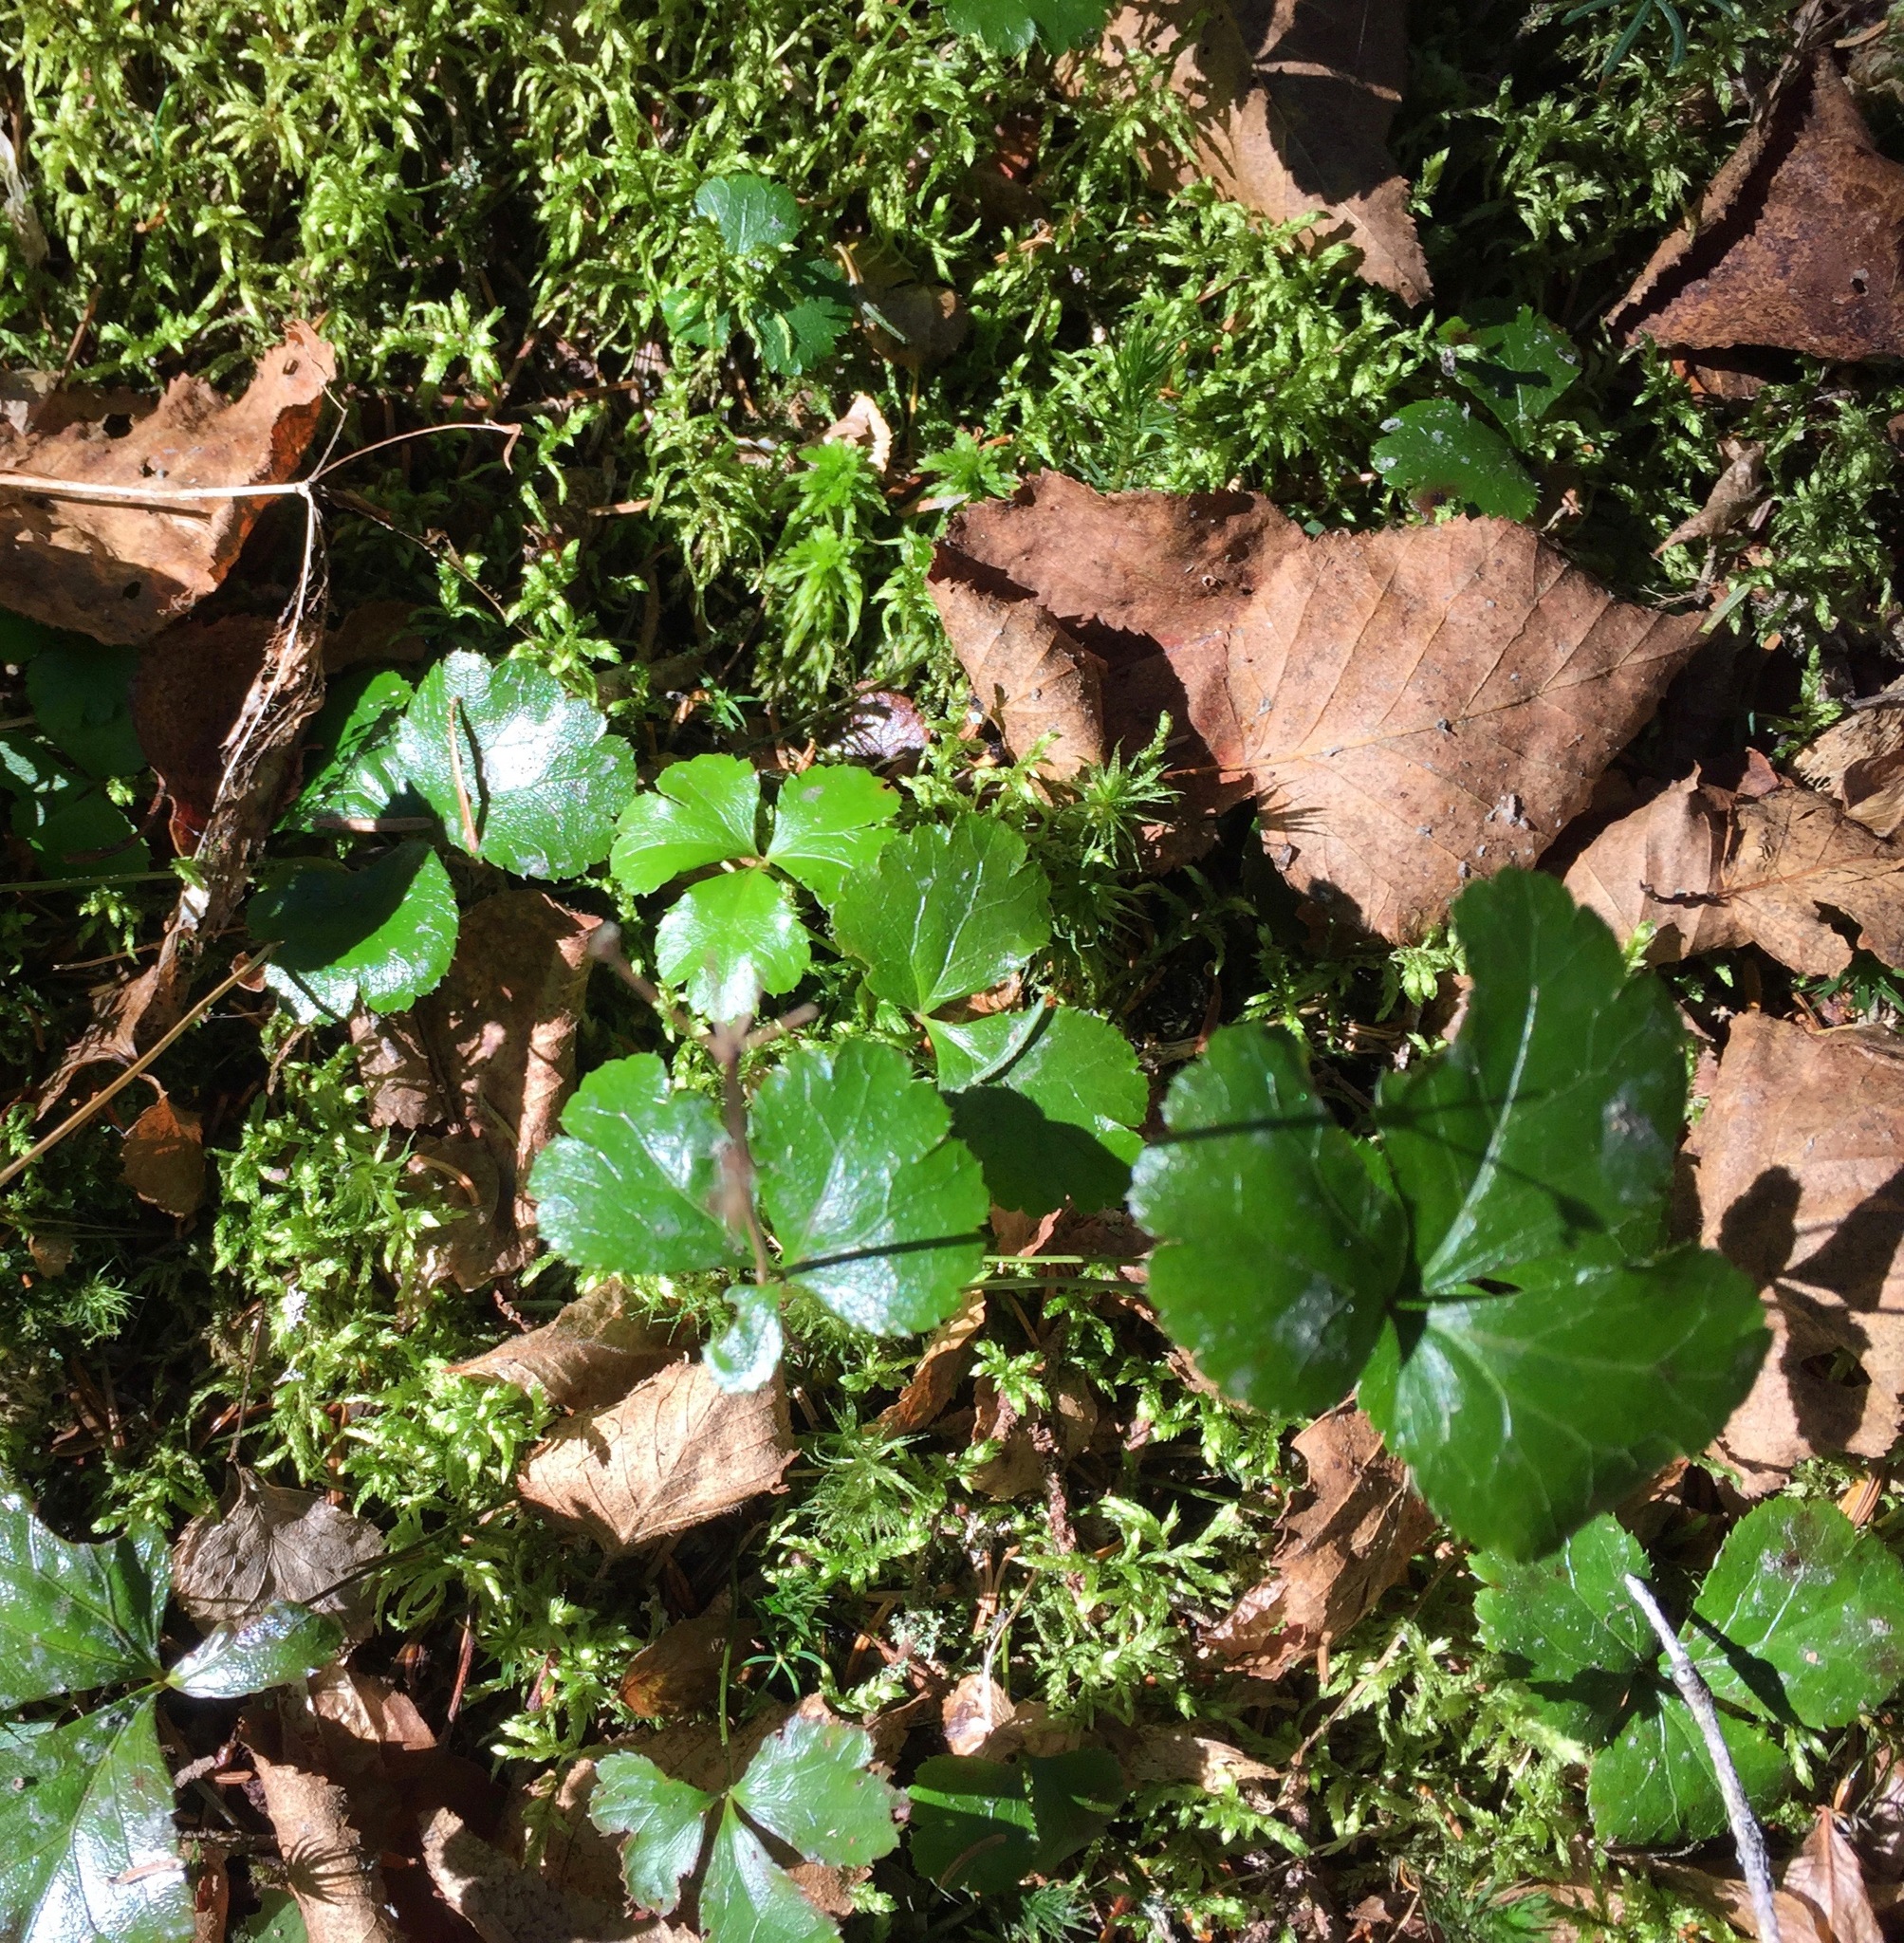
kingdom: Plantae
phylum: Tracheophyta
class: Magnoliopsida
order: Ranunculales
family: Ranunculaceae
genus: Coptis
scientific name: Coptis trifolia
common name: Canker-root
